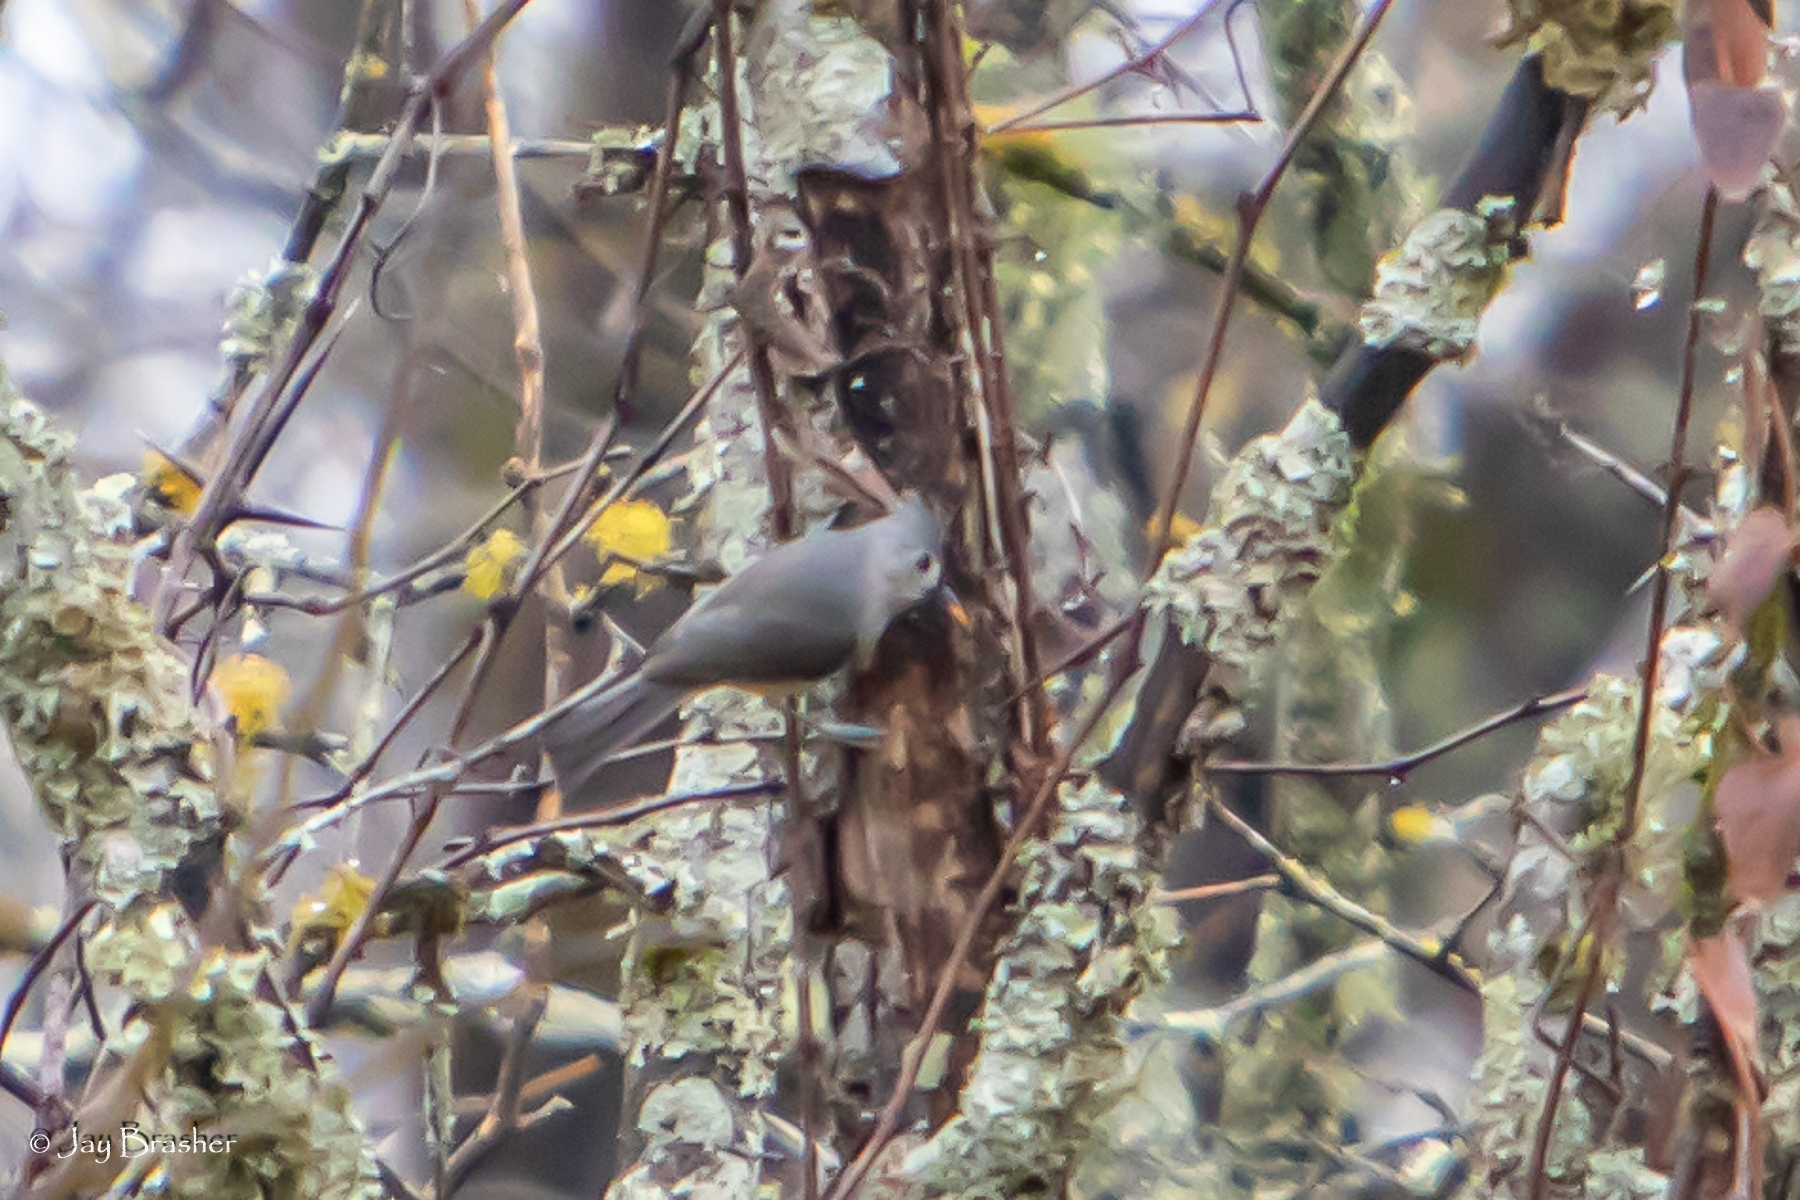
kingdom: Animalia
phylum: Chordata
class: Aves
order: Passeriformes
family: Paridae
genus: Baeolophus
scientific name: Baeolophus bicolor
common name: Tufted titmouse
